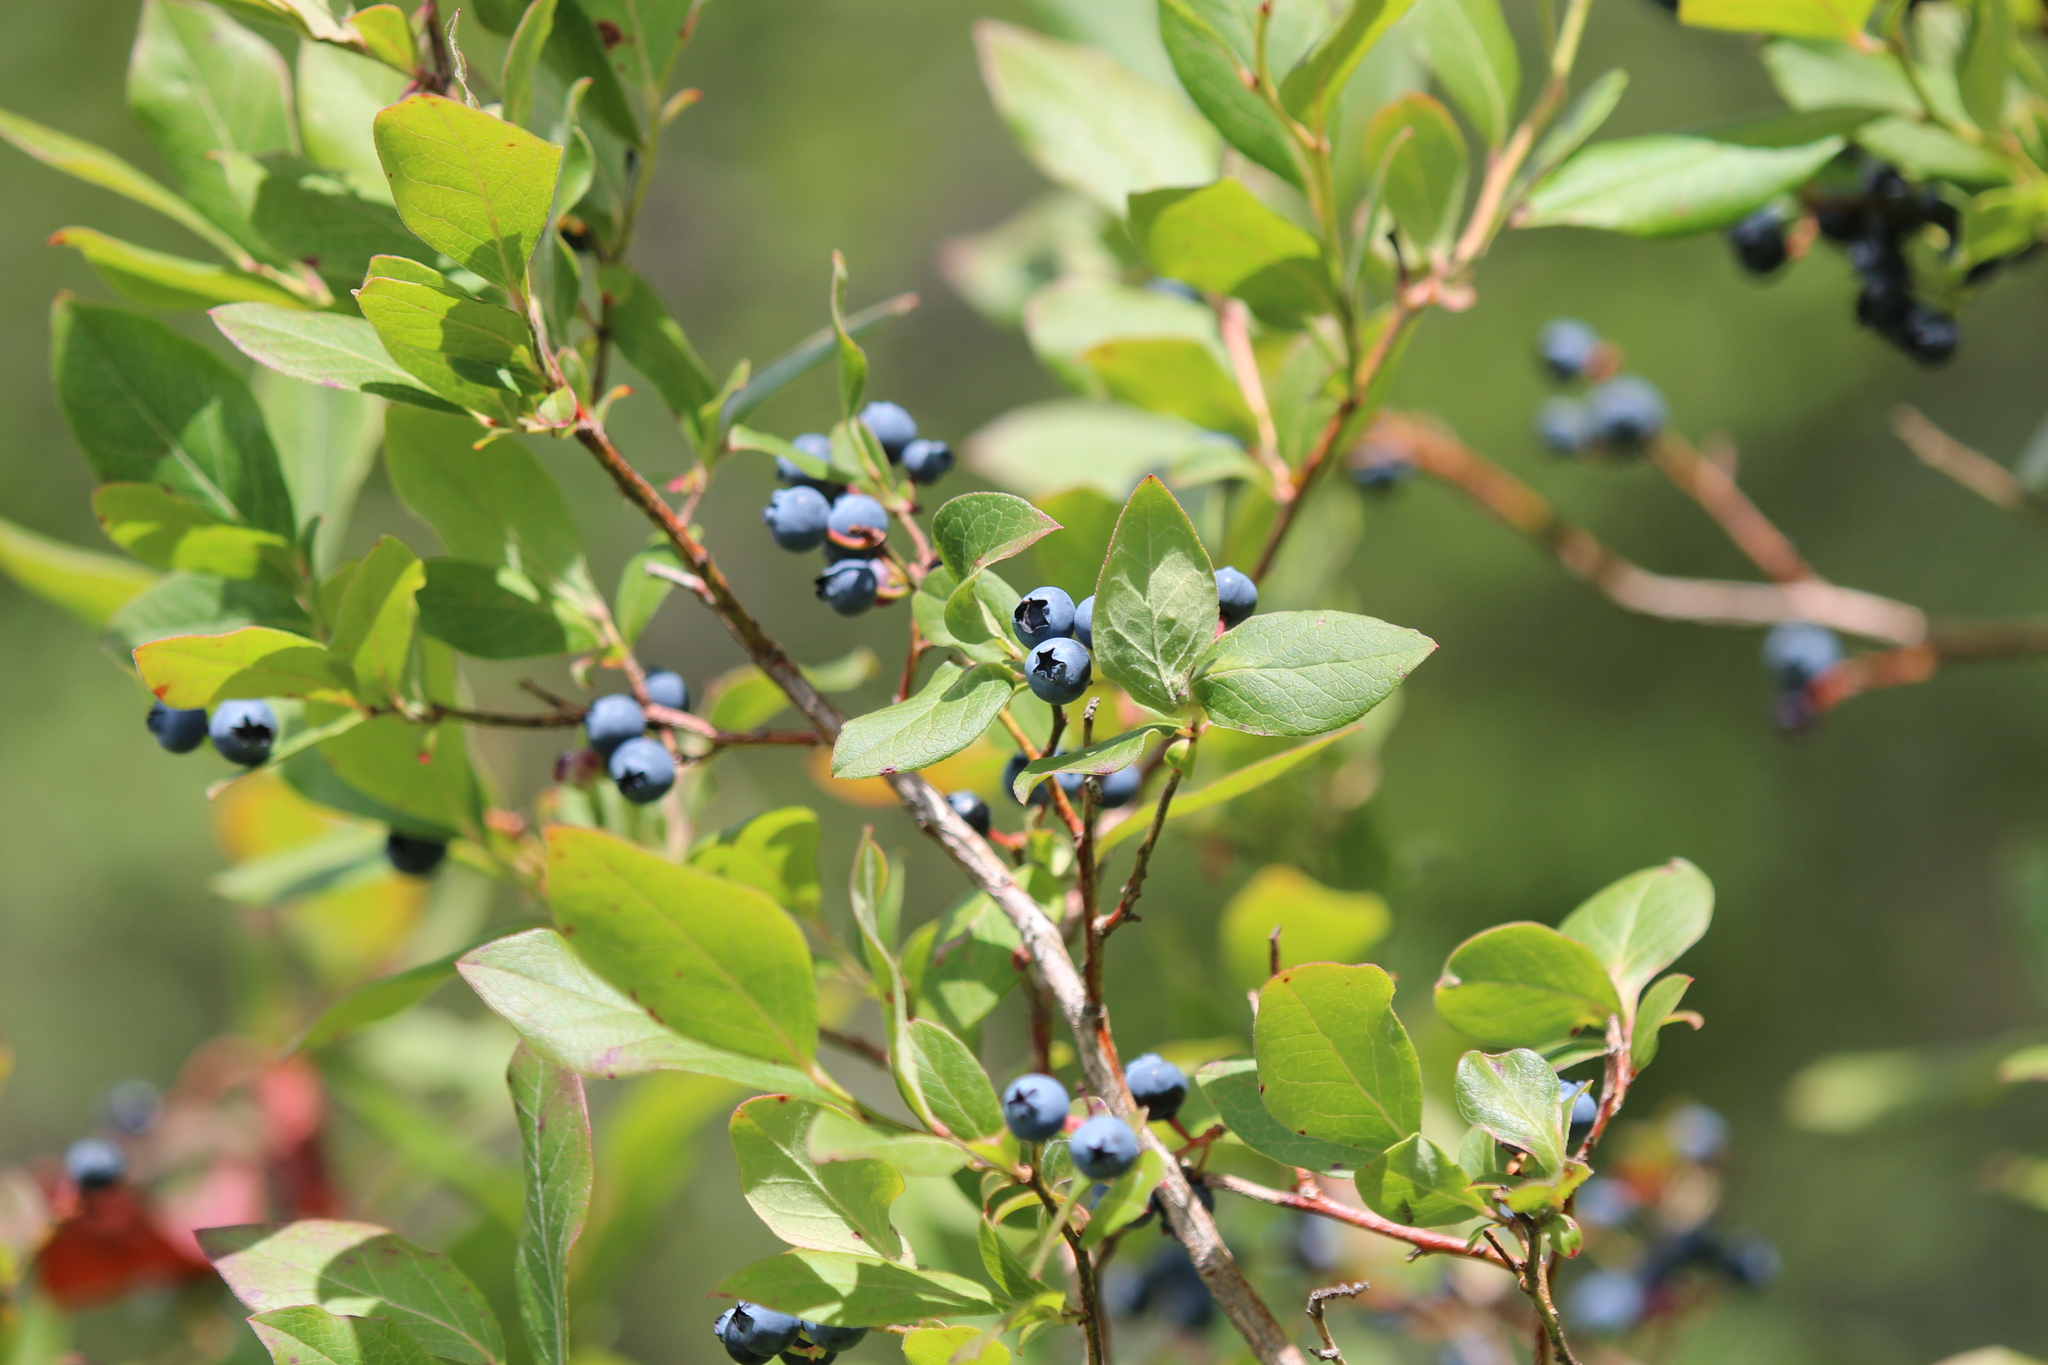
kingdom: Plantae
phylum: Tracheophyta
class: Magnoliopsida
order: Ericales
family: Ericaceae
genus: Vaccinium
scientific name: Vaccinium corymbosum
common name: Blueberry
